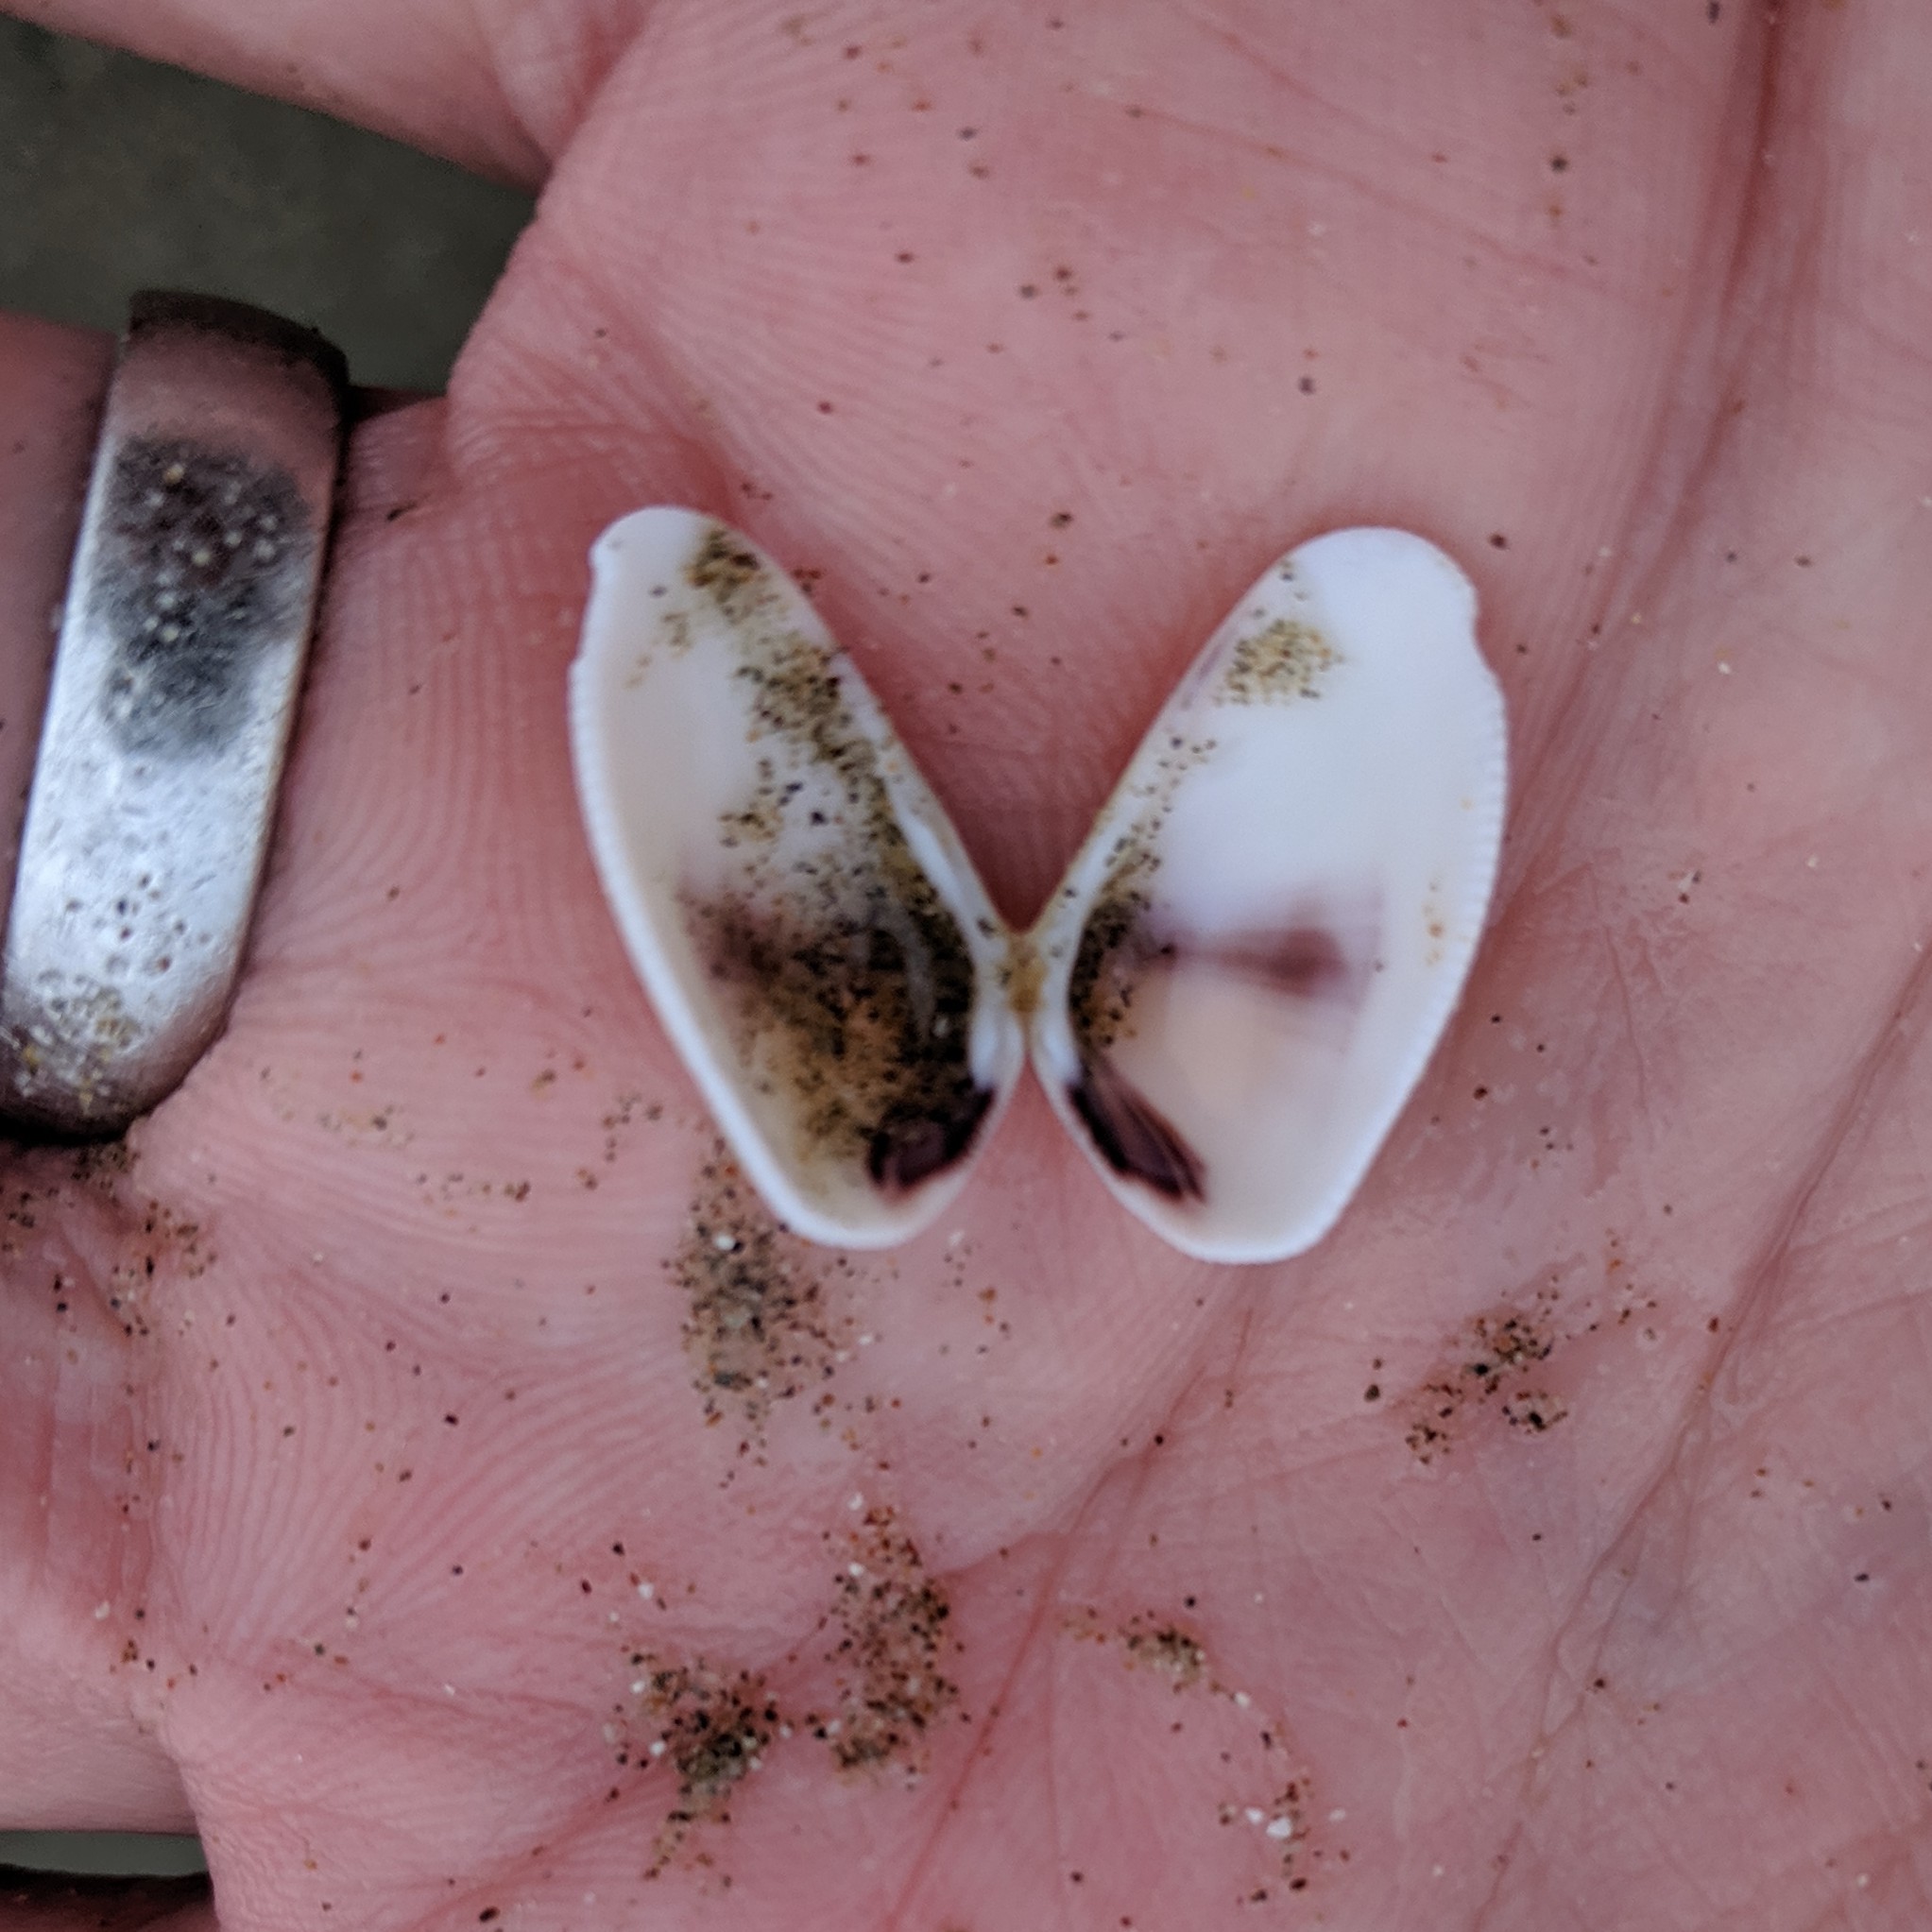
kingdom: Animalia
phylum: Mollusca
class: Bivalvia
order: Cardiida
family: Donacidae
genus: Donax
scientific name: Donax gouldii
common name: Gould beanclam
